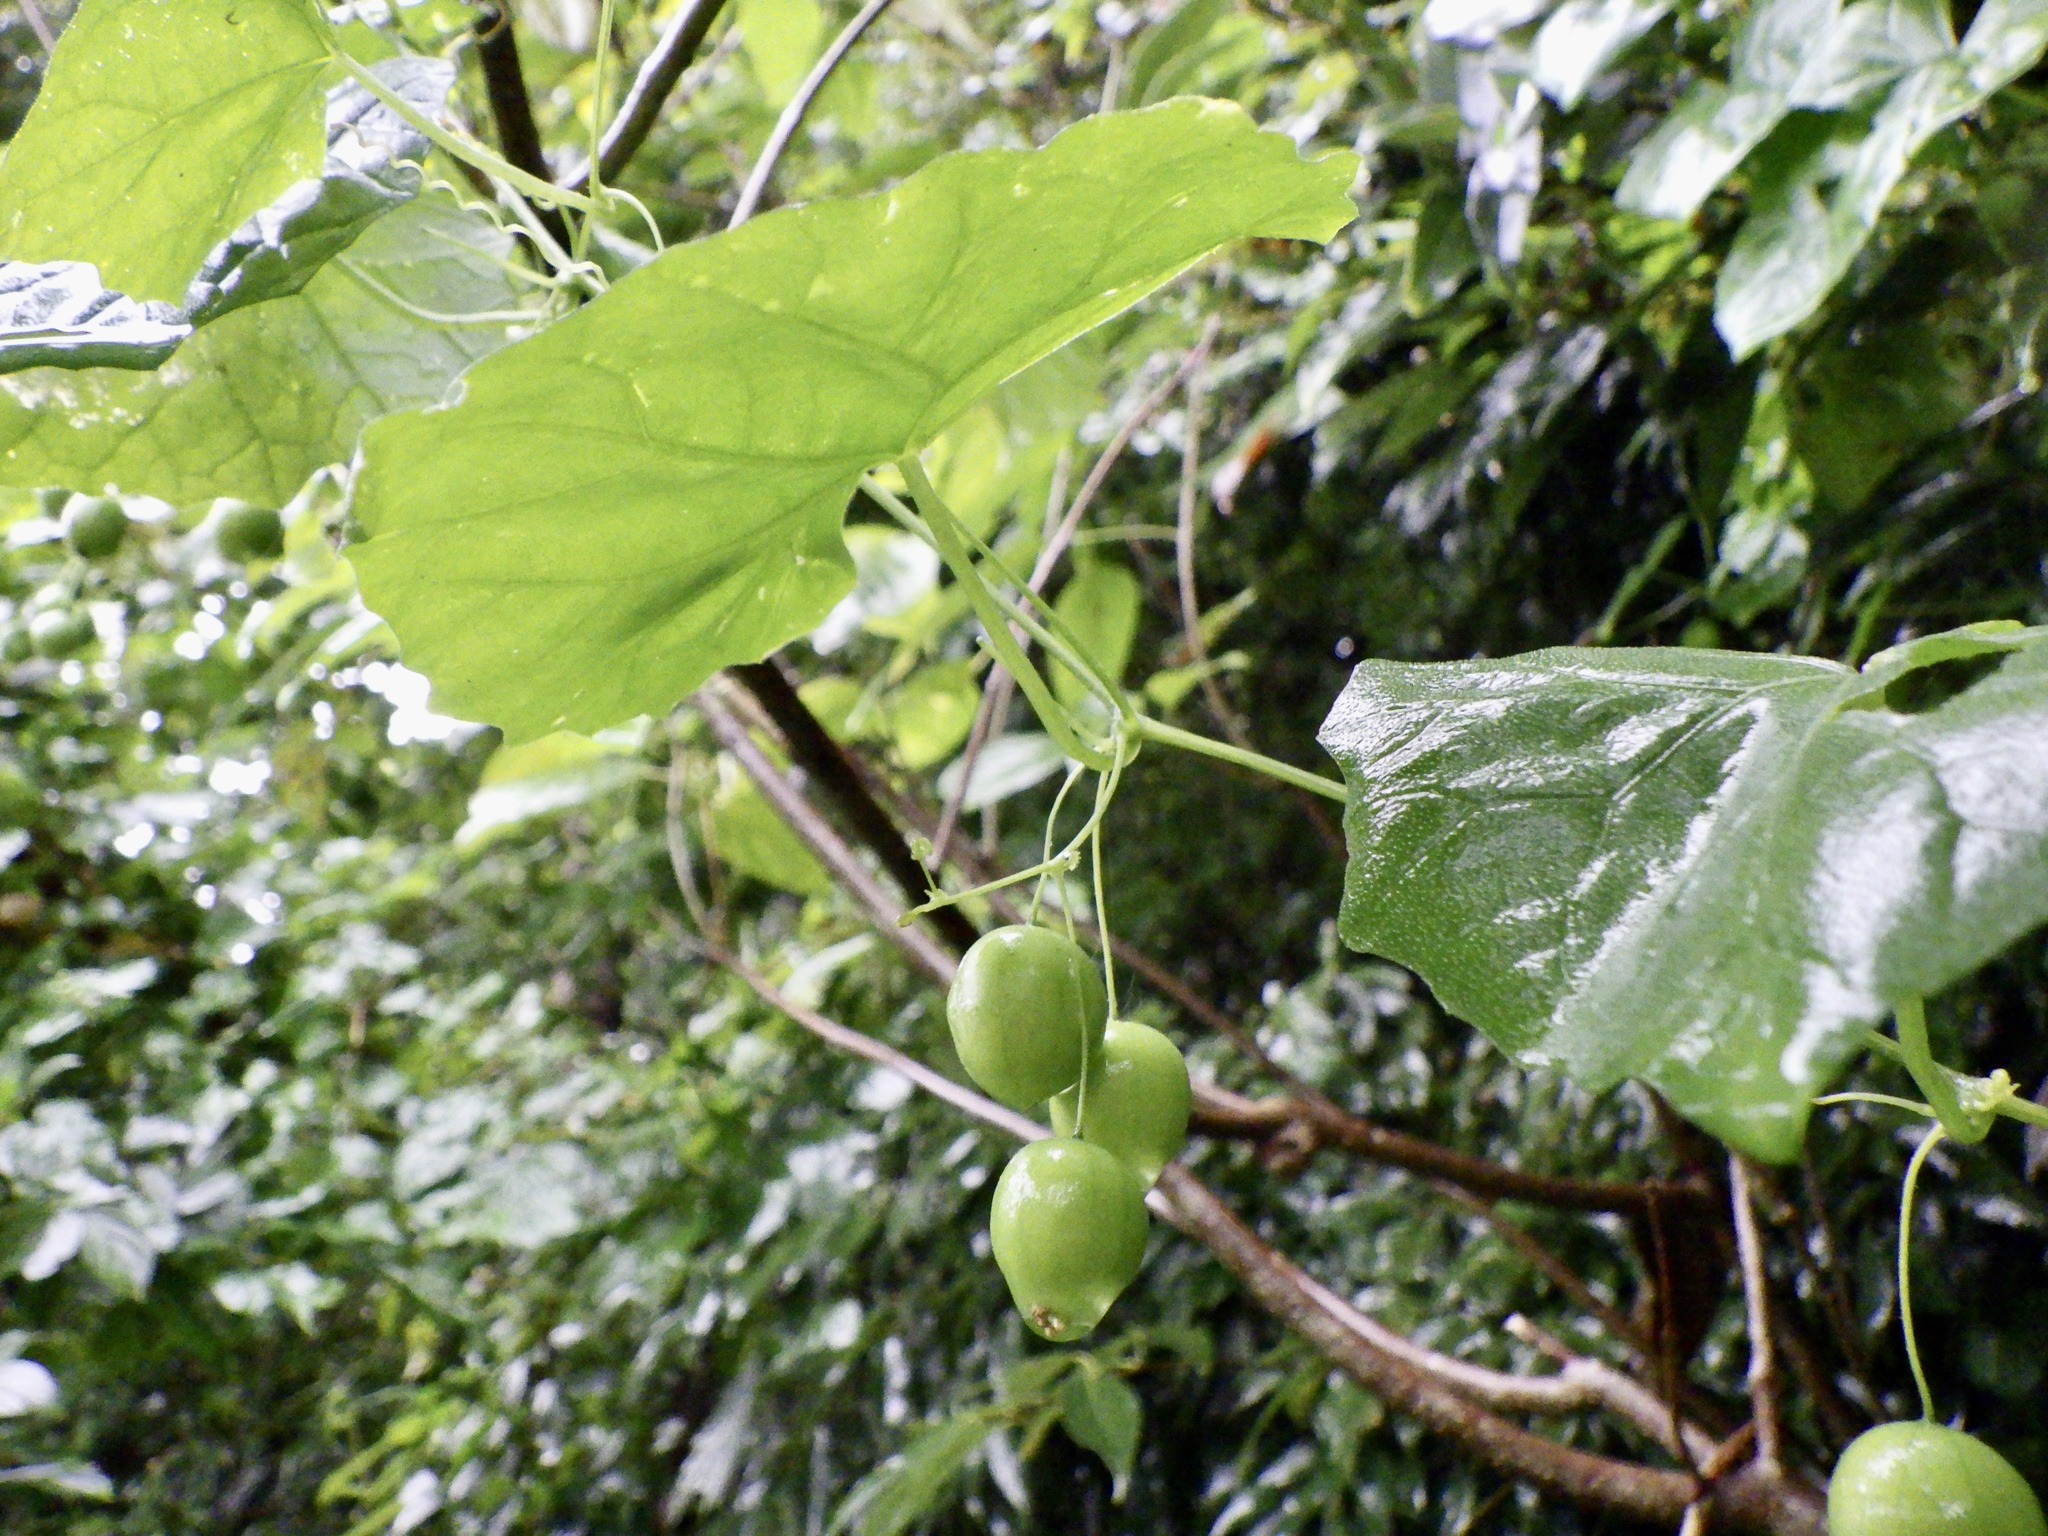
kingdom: Plantae
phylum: Tracheophyta
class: Magnoliopsida
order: Cucurbitales
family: Cucurbitaceae
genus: Zehneria
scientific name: Zehneria japonica
